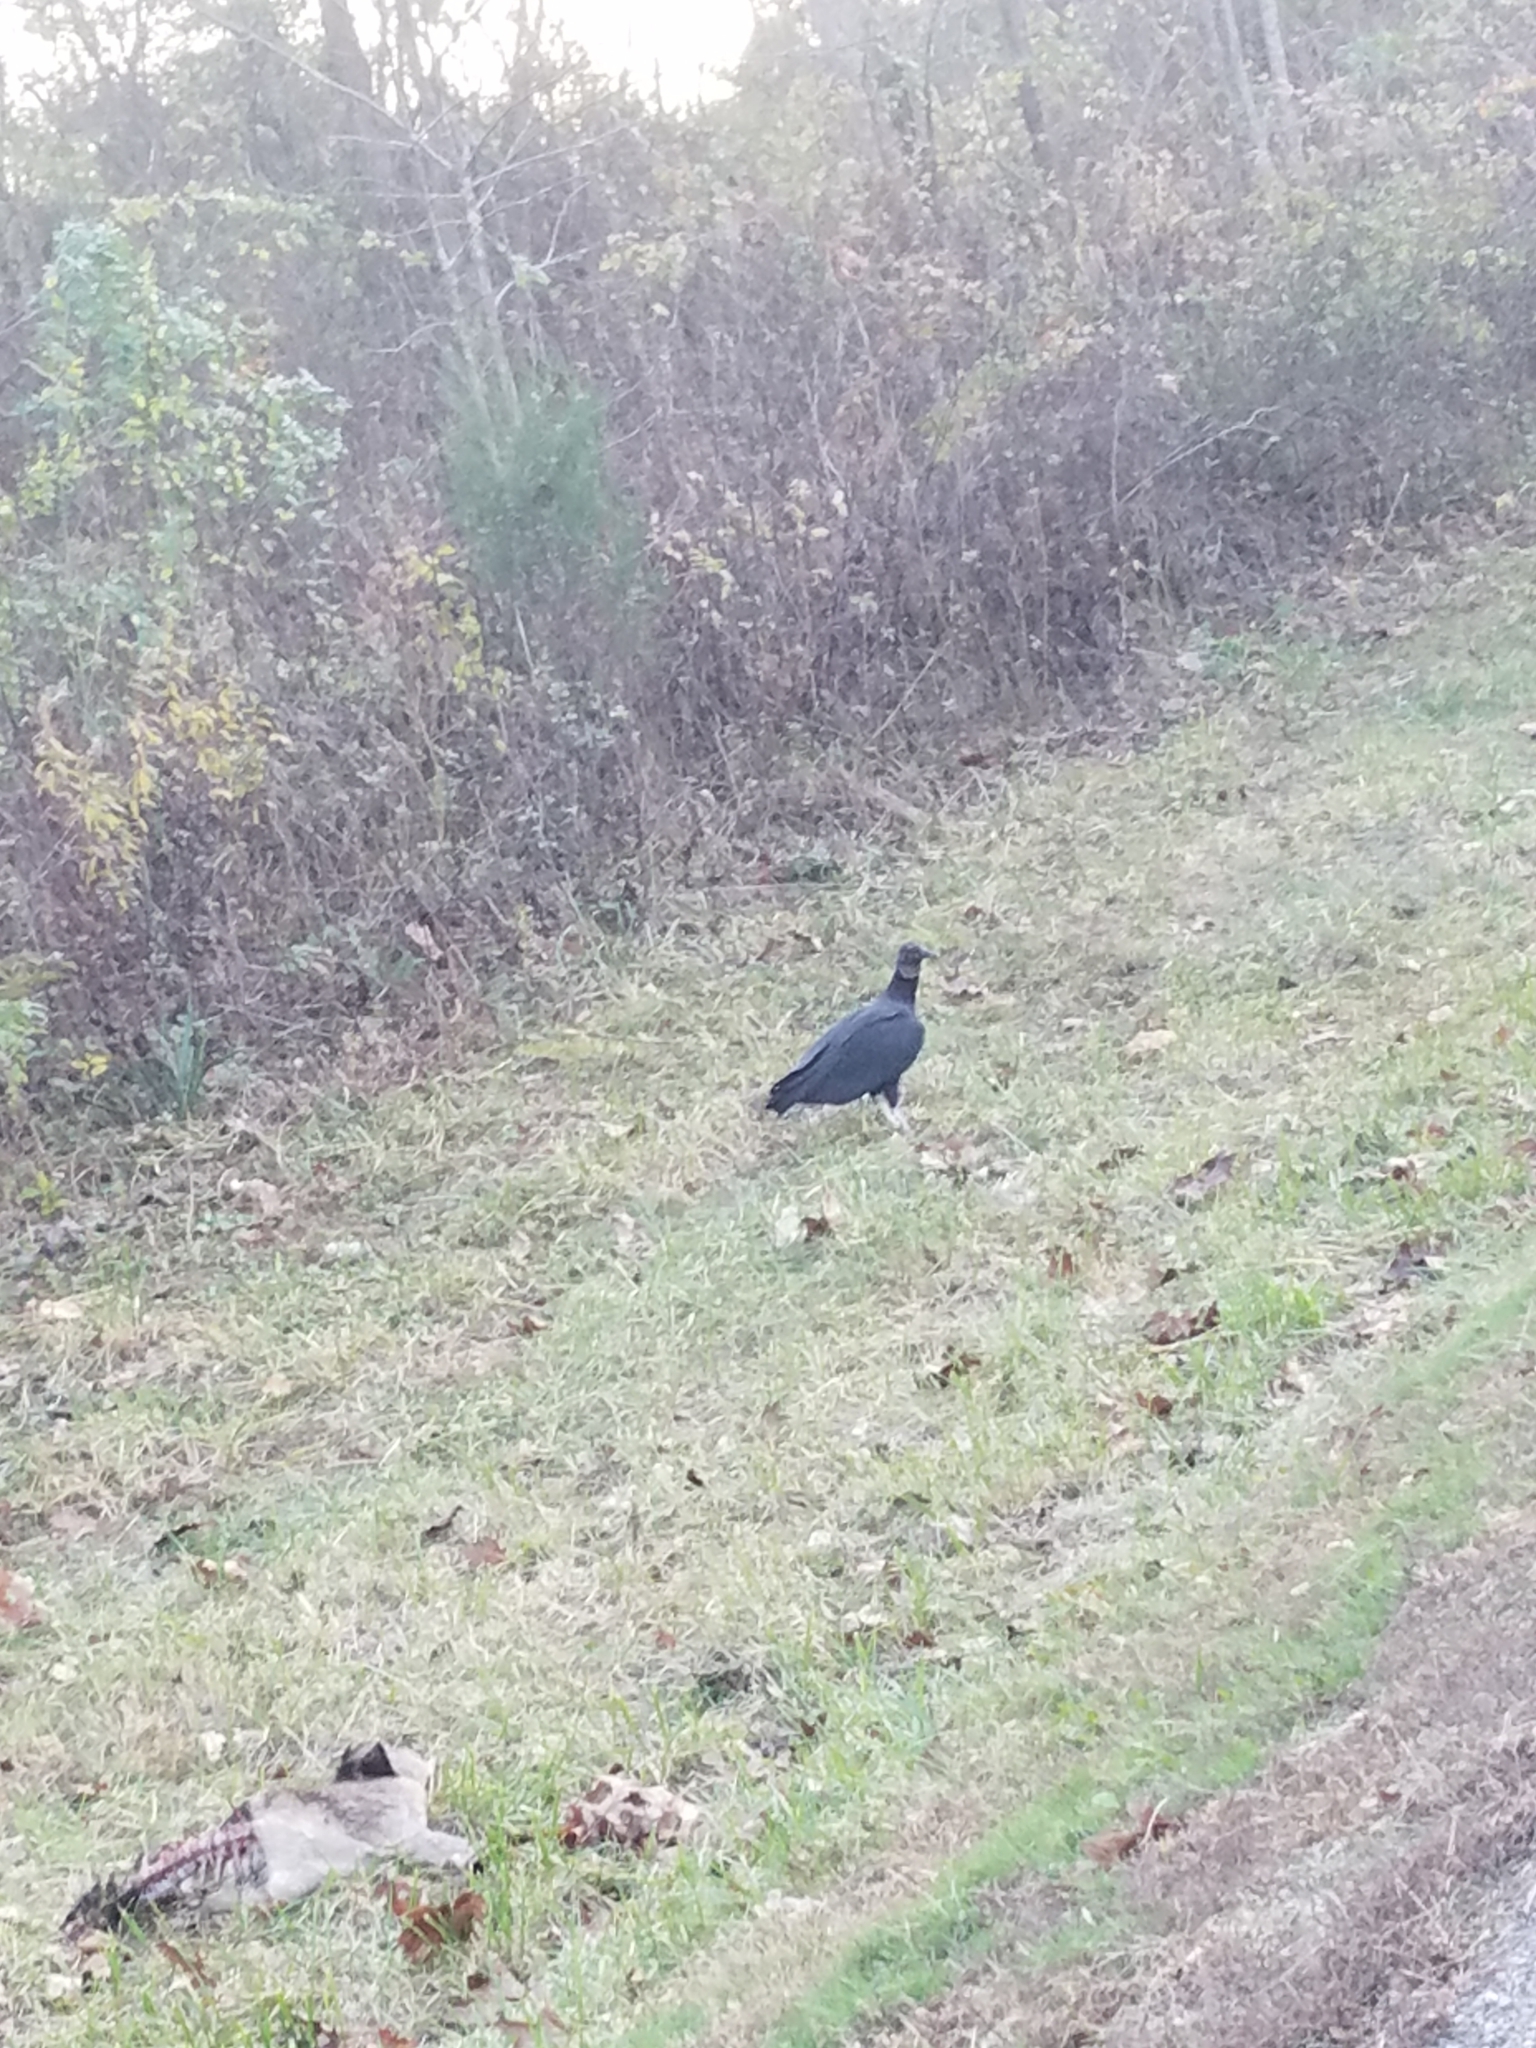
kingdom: Animalia
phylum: Chordata
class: Aves
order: Accipitriformes
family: Cathartidae
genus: Coragyps
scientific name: Coragyps atratus
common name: Black vulture
